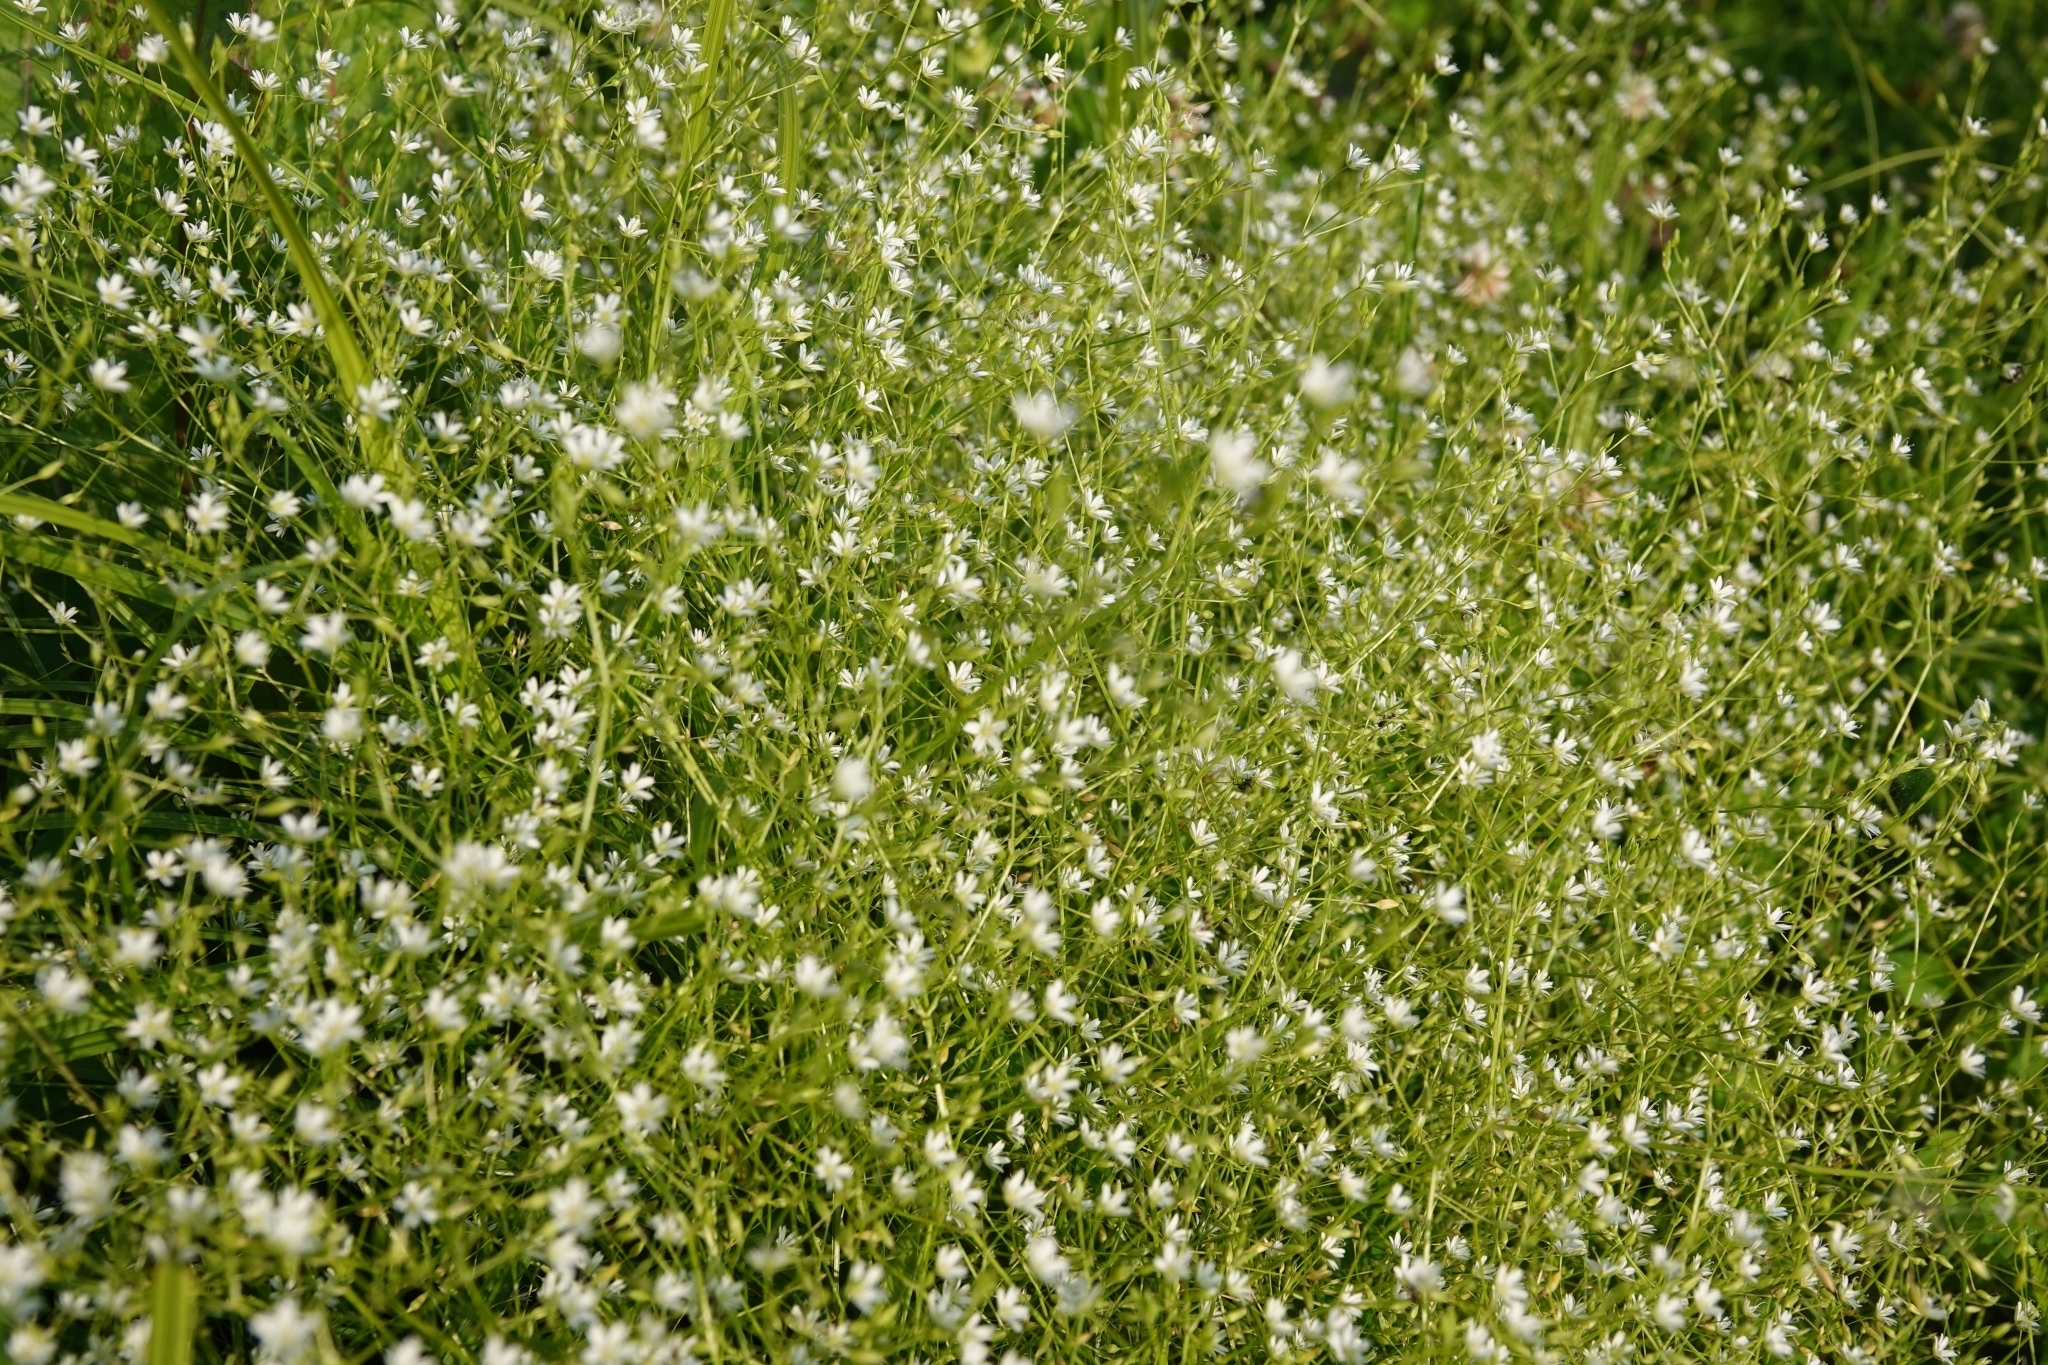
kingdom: Plantae
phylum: Tracheophyta
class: Magnoliopsida
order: Caryophyllales
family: Caryophyllaceae
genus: Stellaria
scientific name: Stellaria graminea
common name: Grass-like starwort
